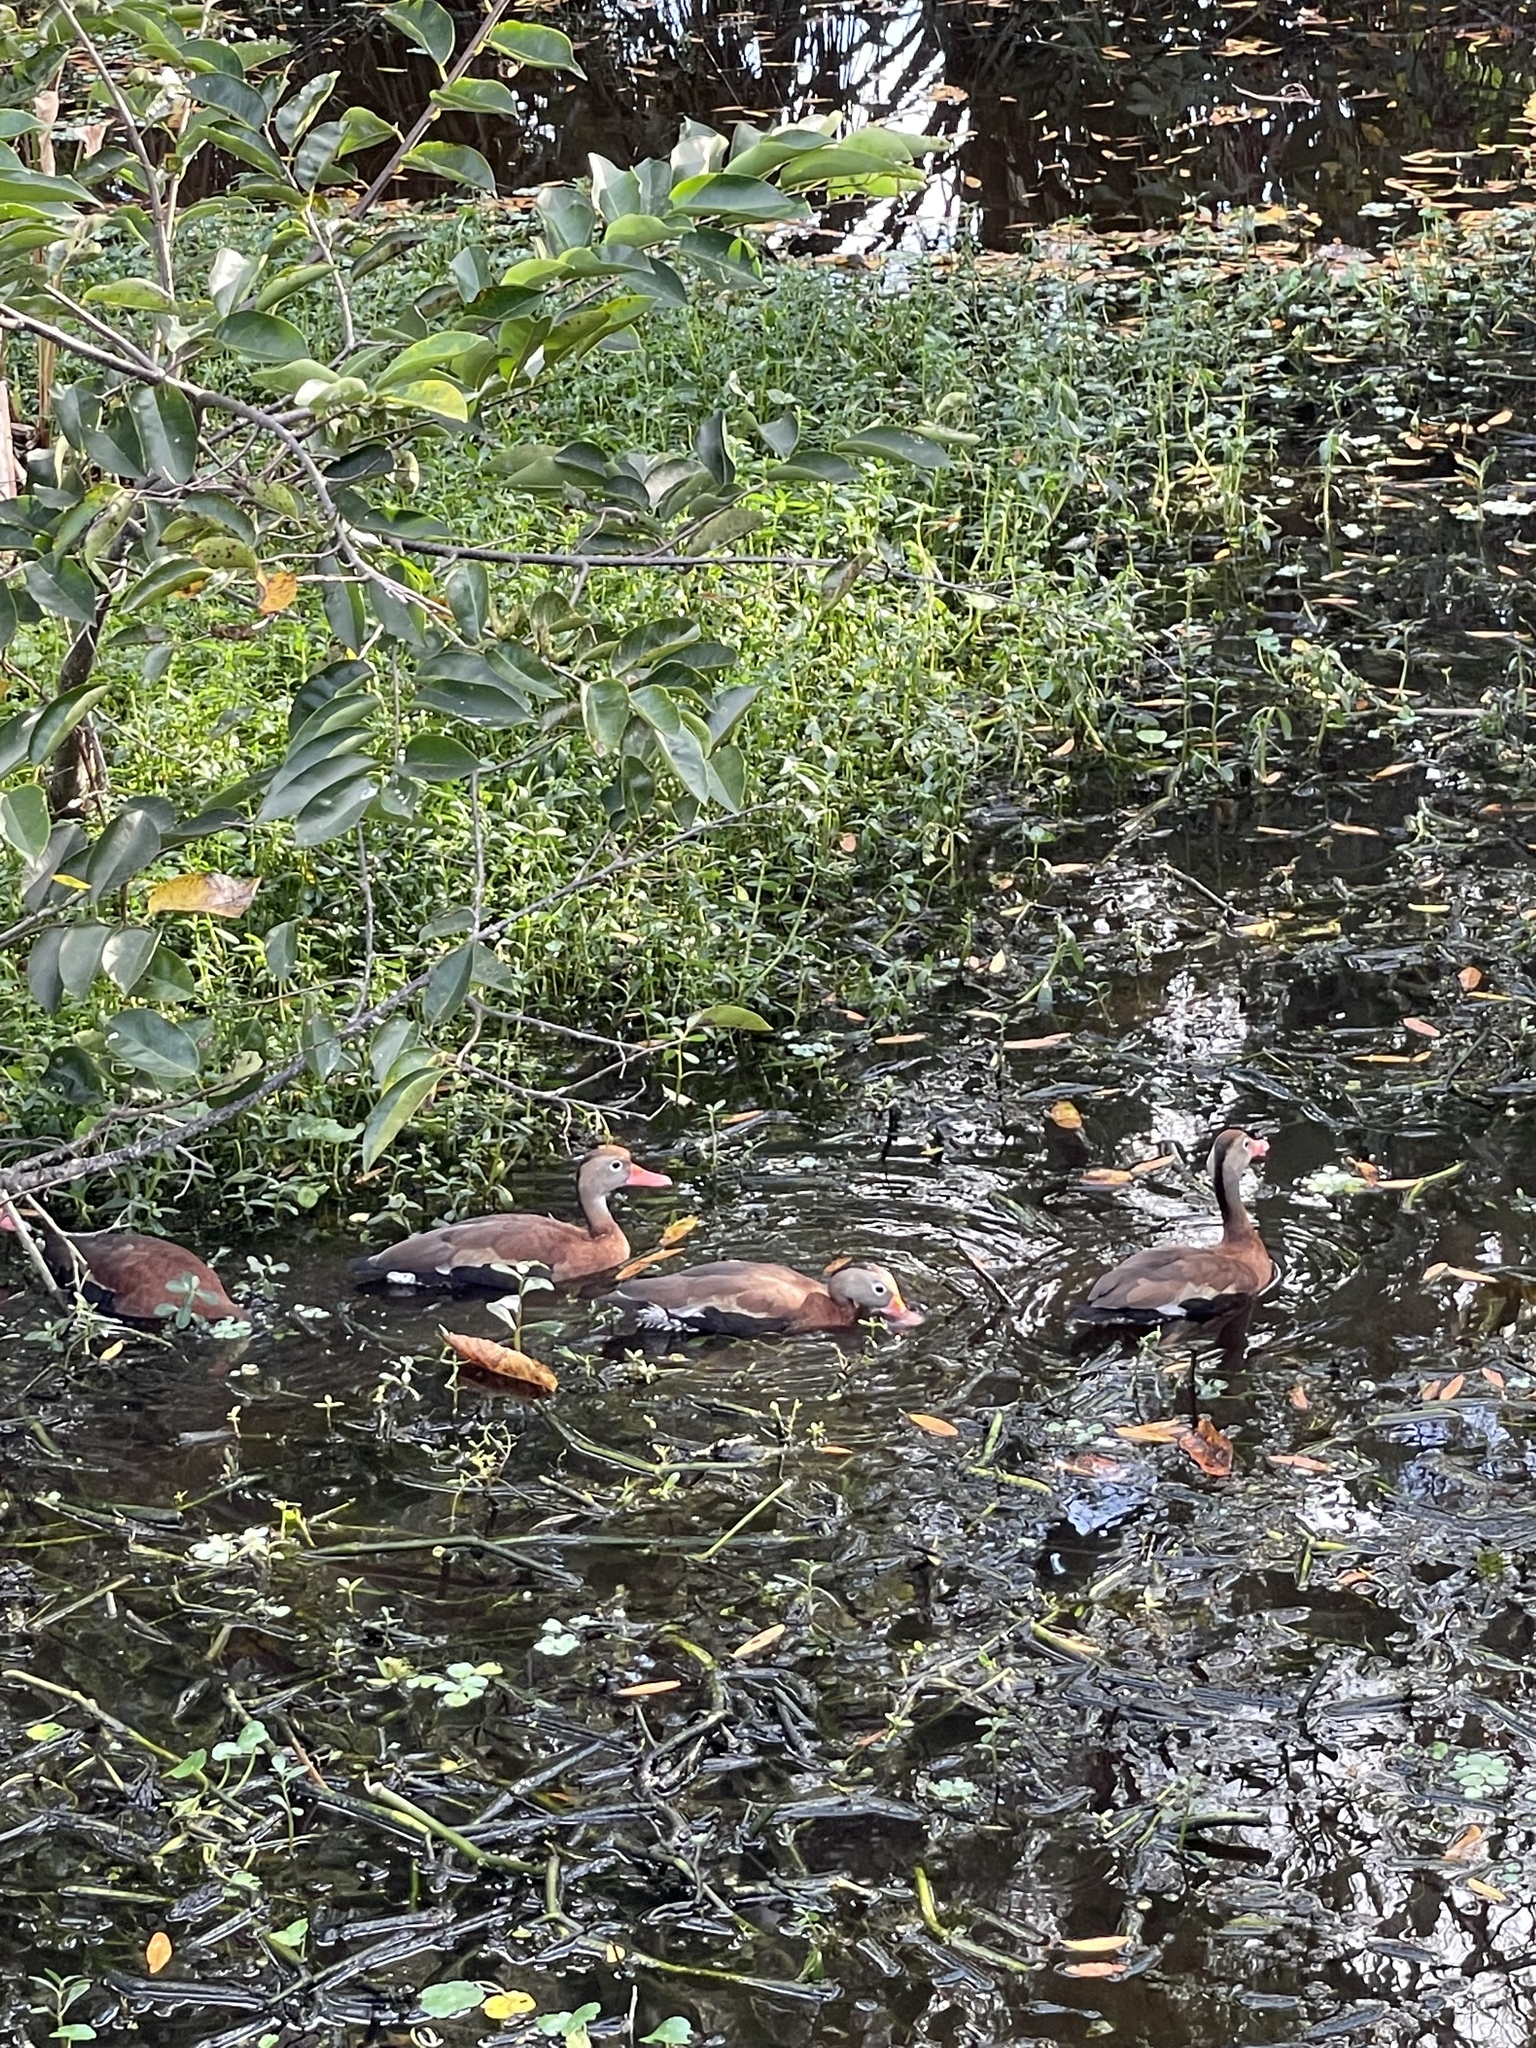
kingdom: Animalia
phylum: Chordata
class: Aves
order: Anseriformes
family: Anatidae
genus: Dendrocygna
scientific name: Dendrocygna autumnalis
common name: Black-bellied whistling duck
